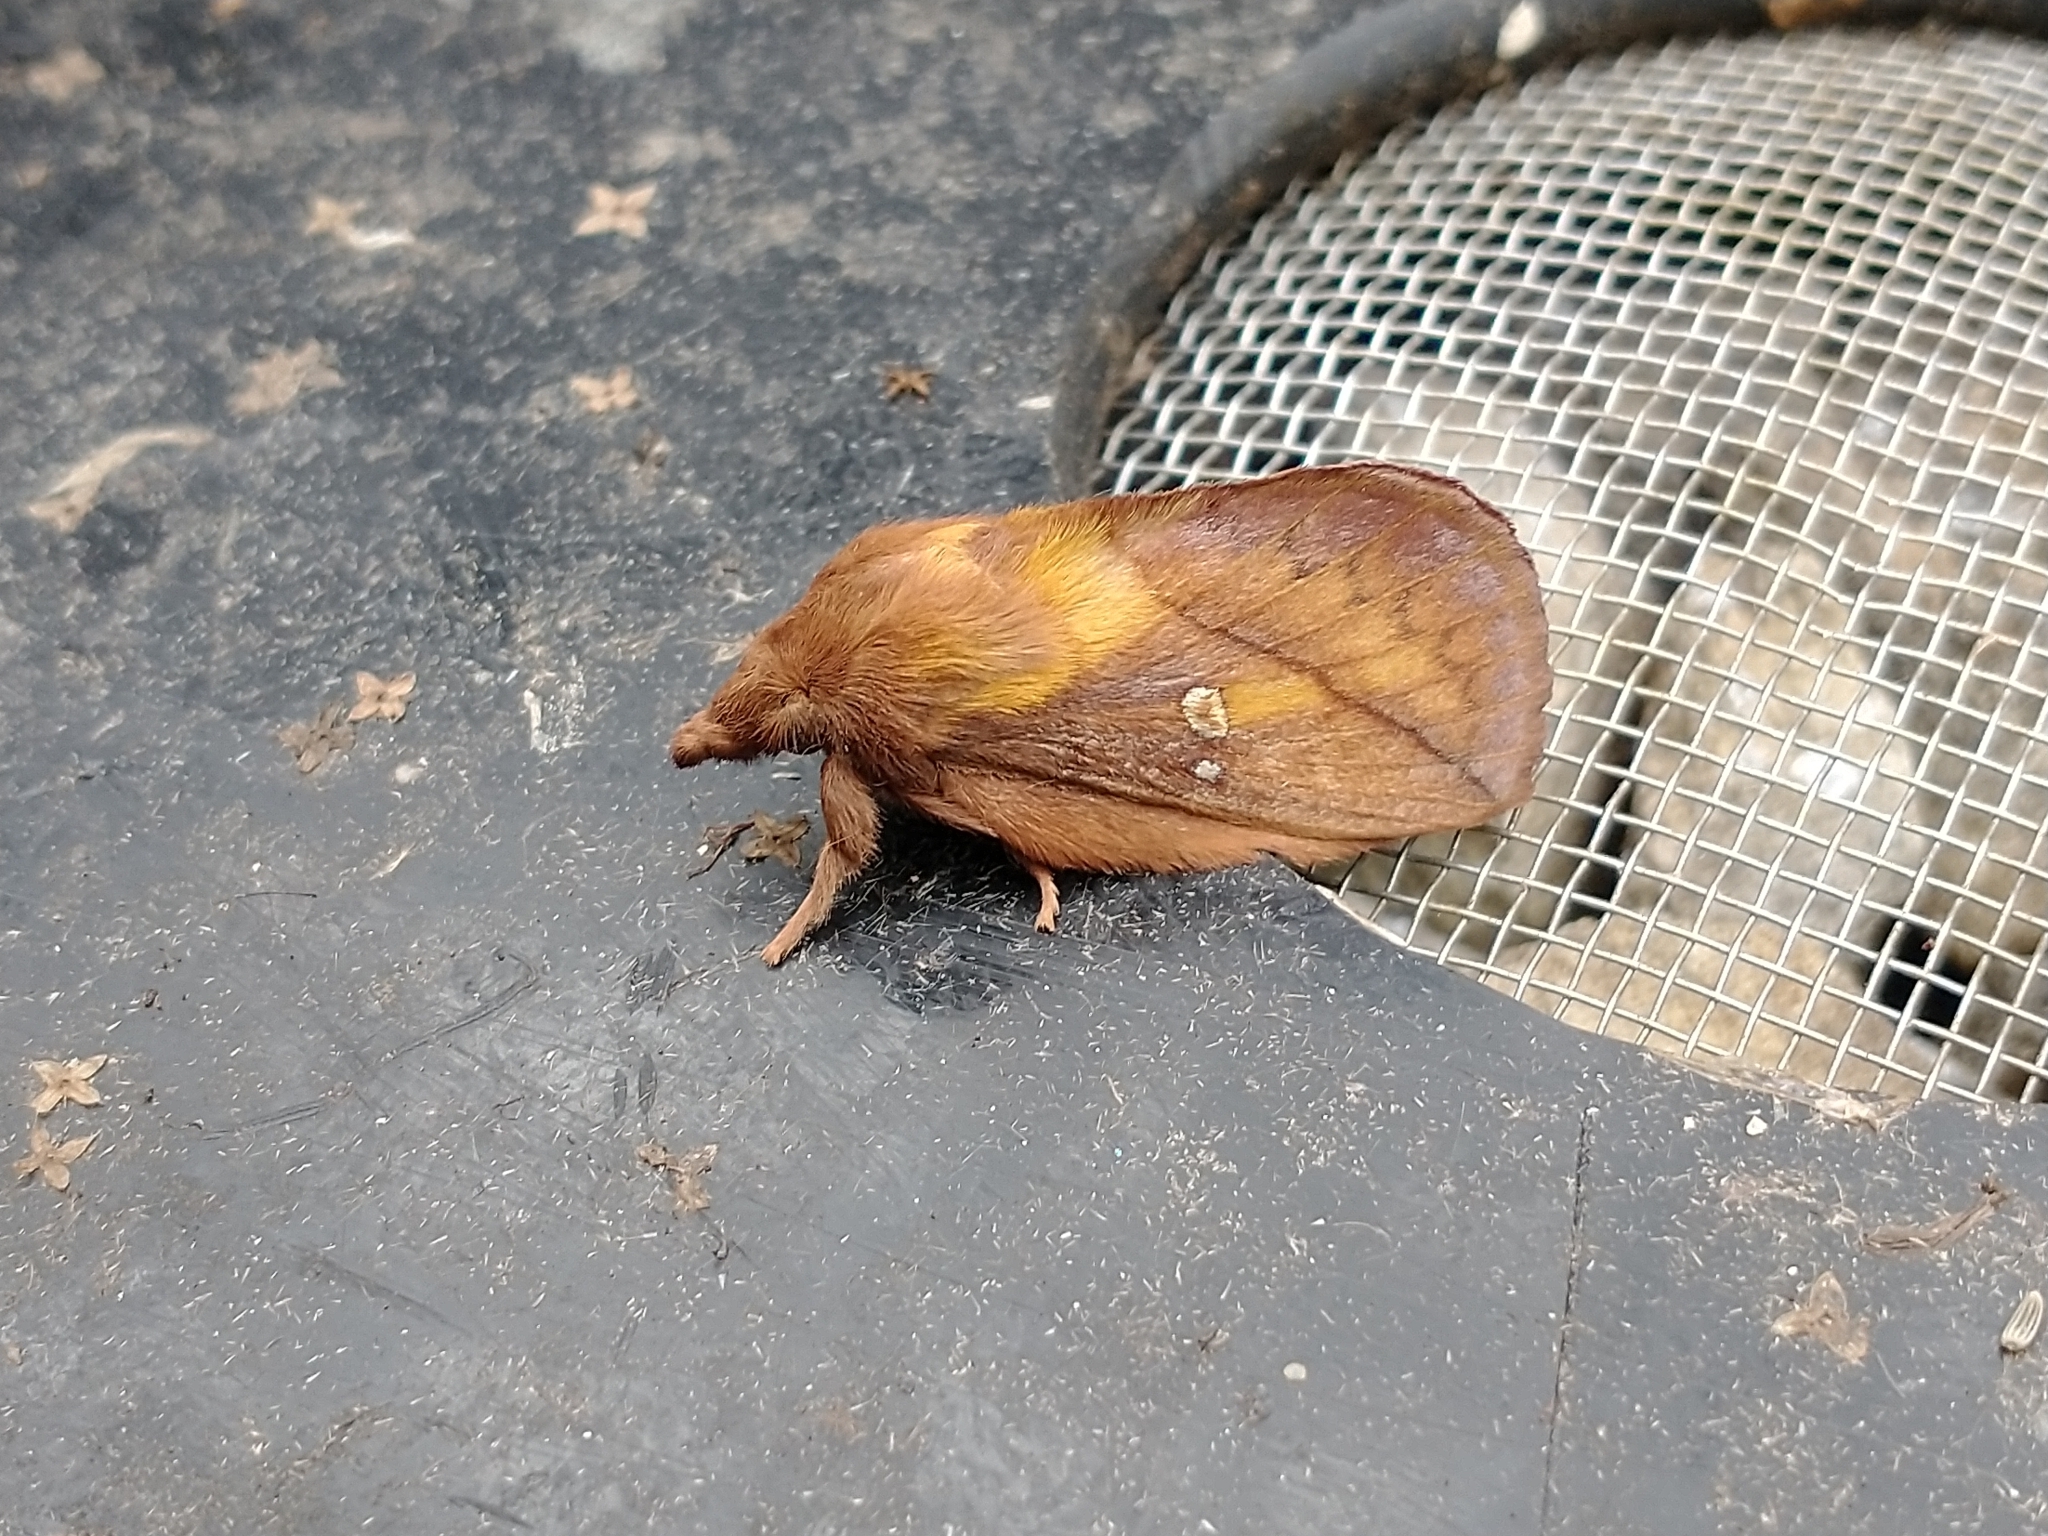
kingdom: Animalia
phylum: Arthropoda
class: Insecta
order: Lepidoptera
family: Lasiocampidae
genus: Euthrix
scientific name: Euthrix potatoria
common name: Drinker
